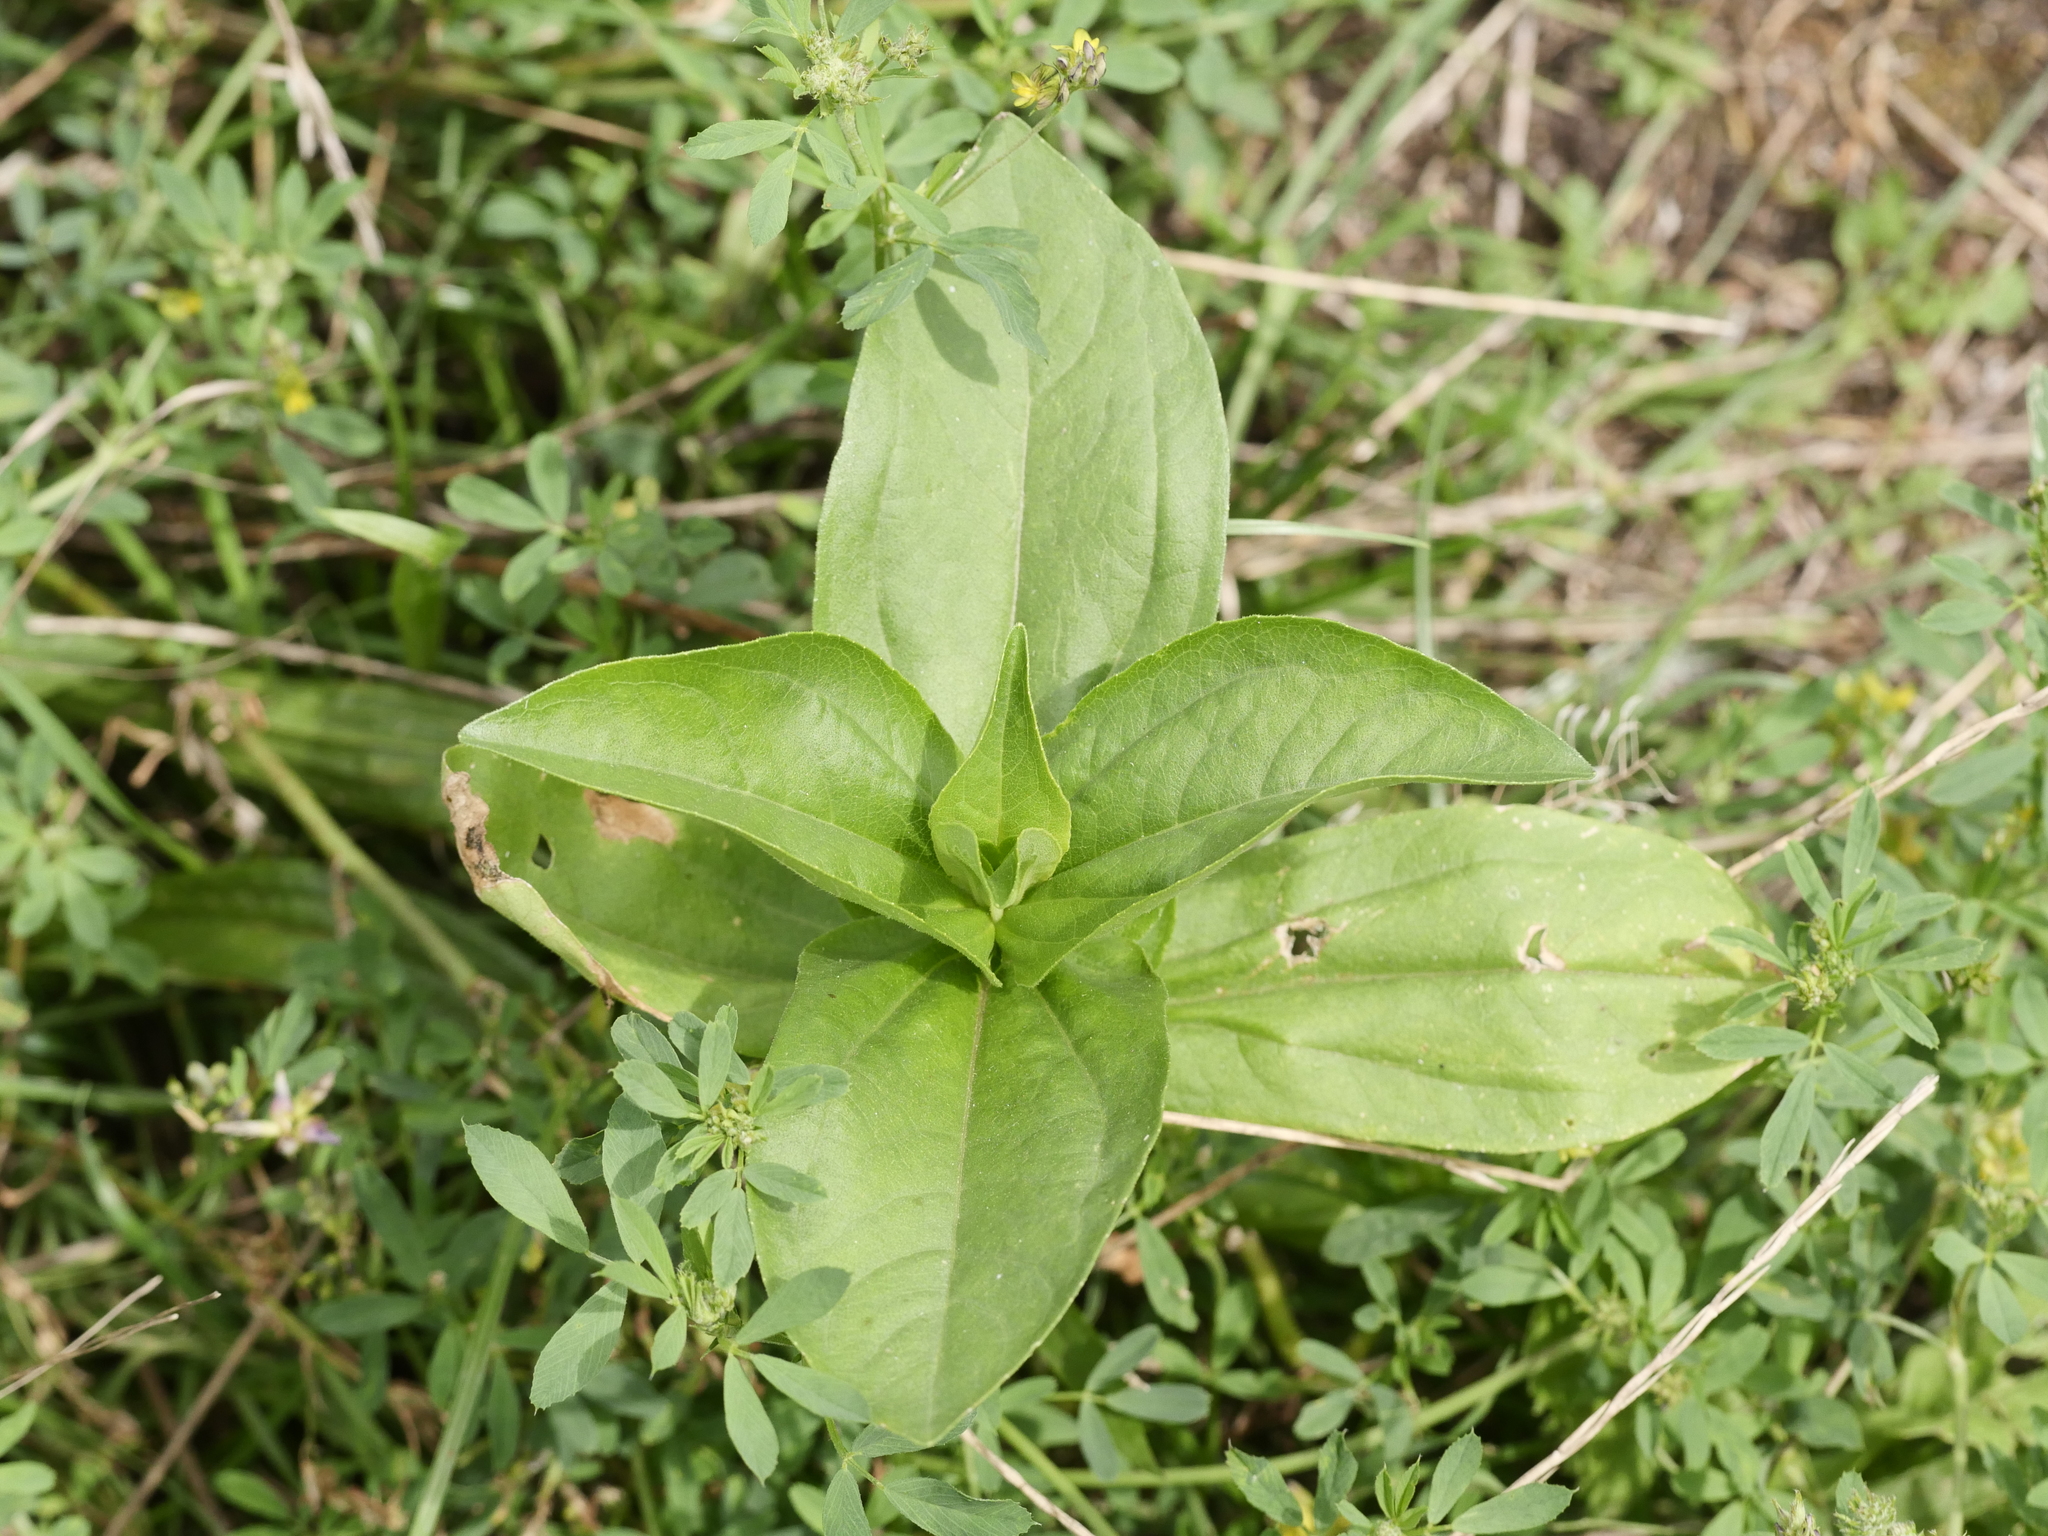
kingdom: Plantae
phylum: Tracheophyta
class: Magnoliopsida
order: Caryophyllales
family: Caryophyllaceae
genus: Saponaria
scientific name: Saponaria officinalis
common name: Soapwort
